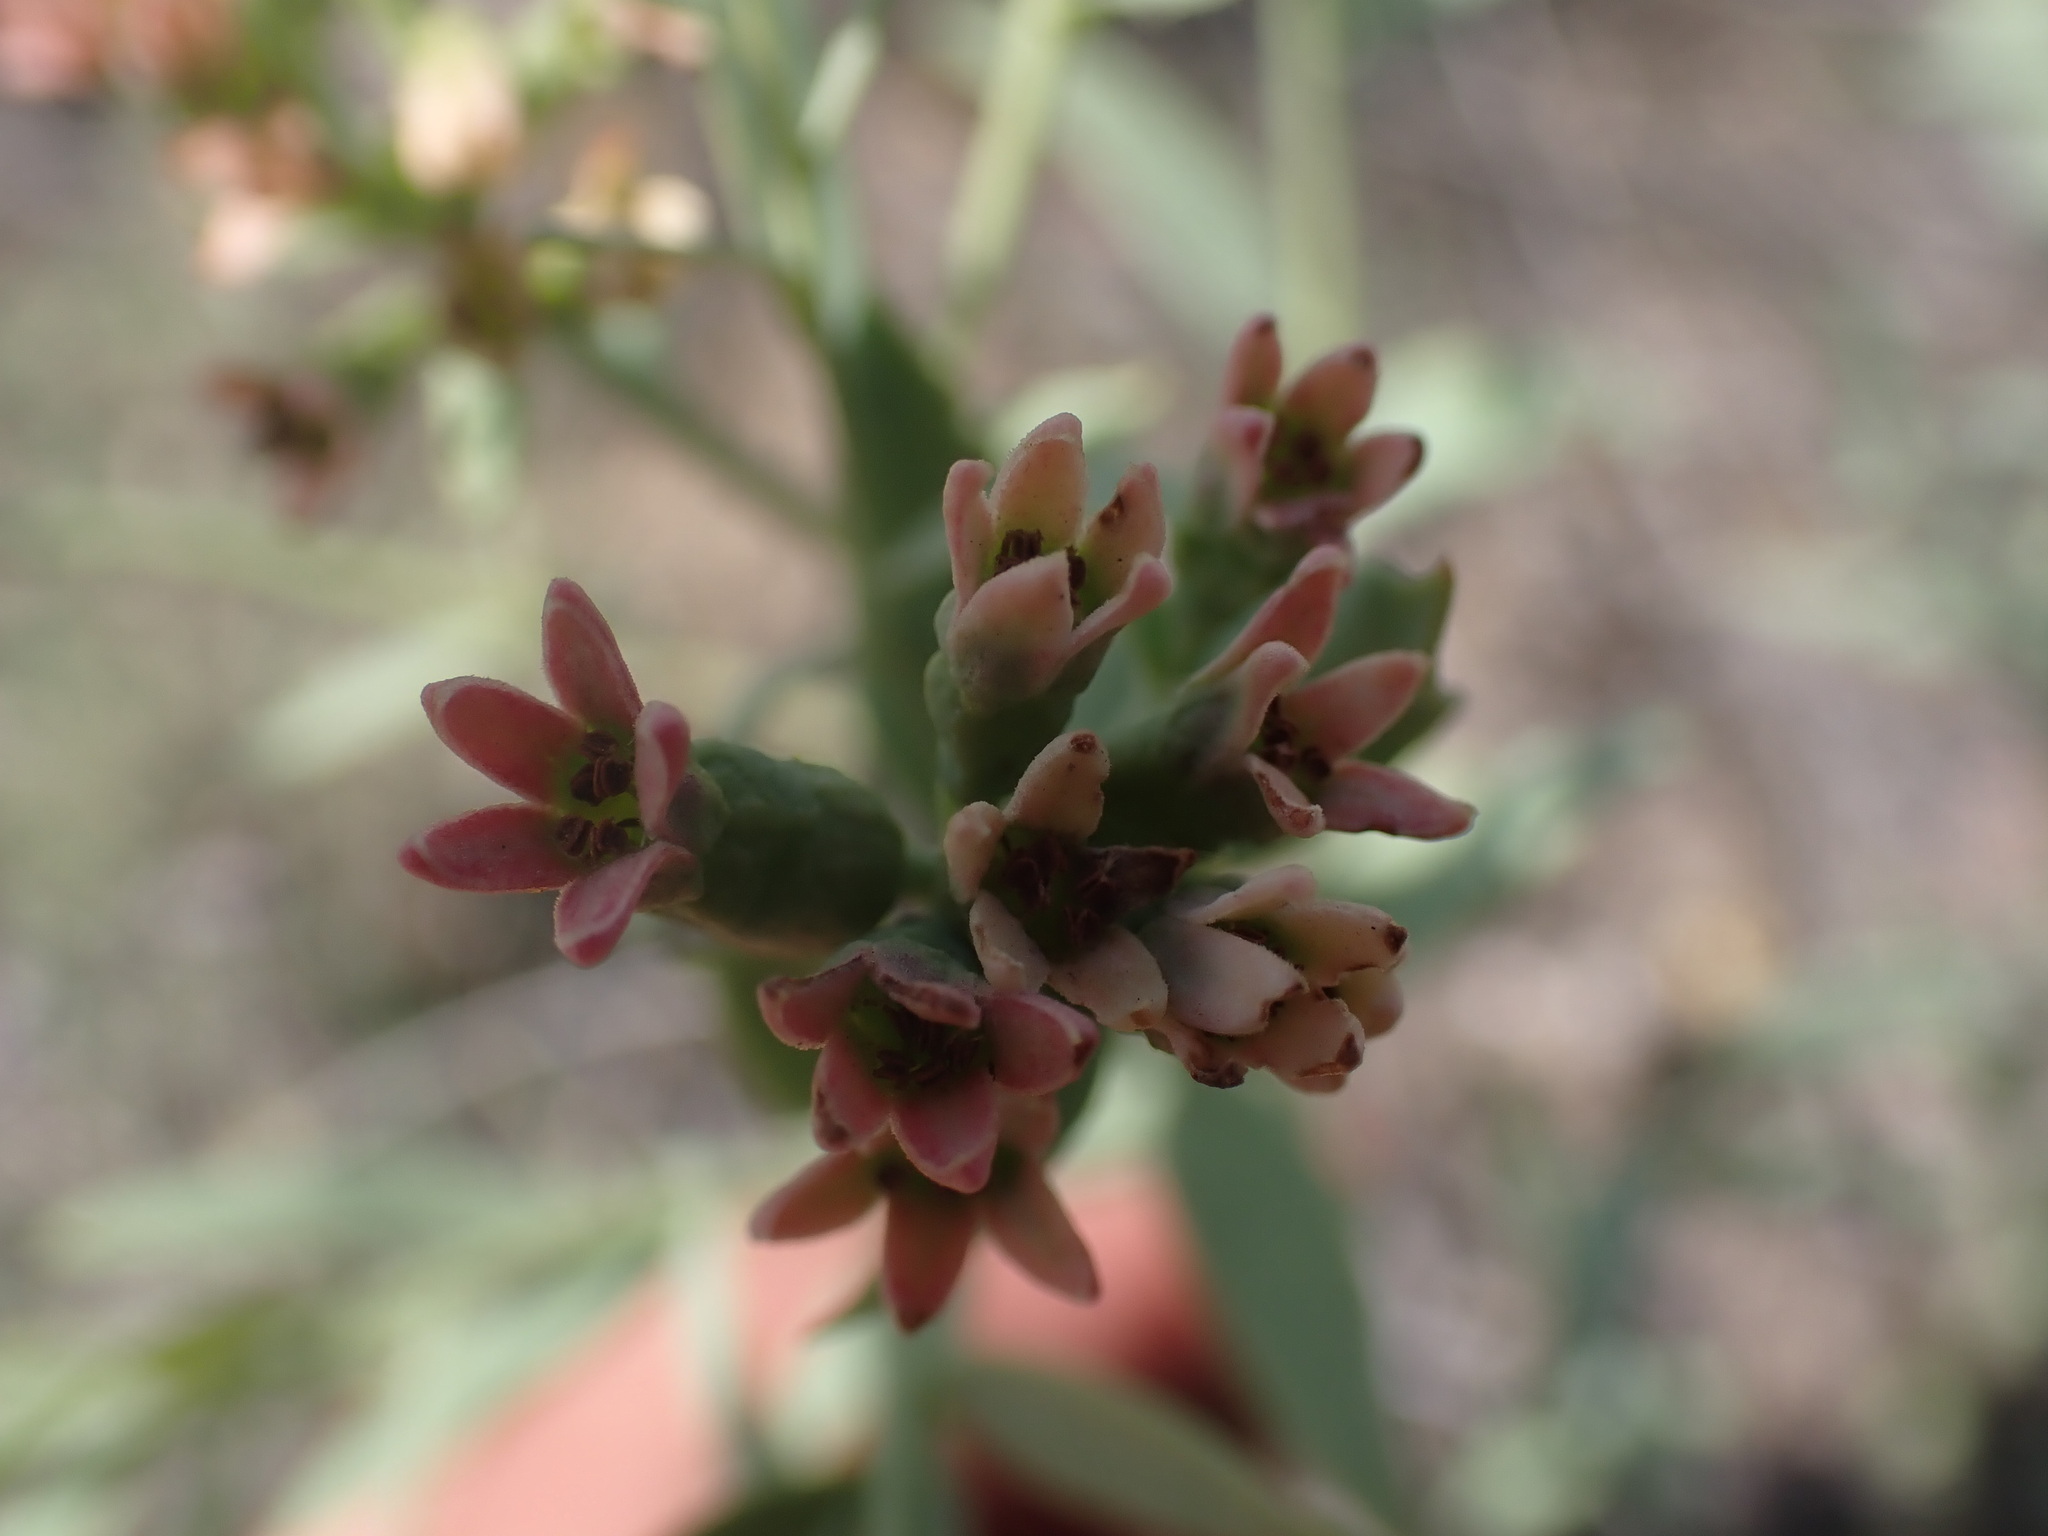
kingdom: Plantae
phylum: Tracheophyta
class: Magnoliopsida
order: Santalales
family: Comandraceae
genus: Comandra
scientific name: Comandra umbellata
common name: Bastard toadflax
